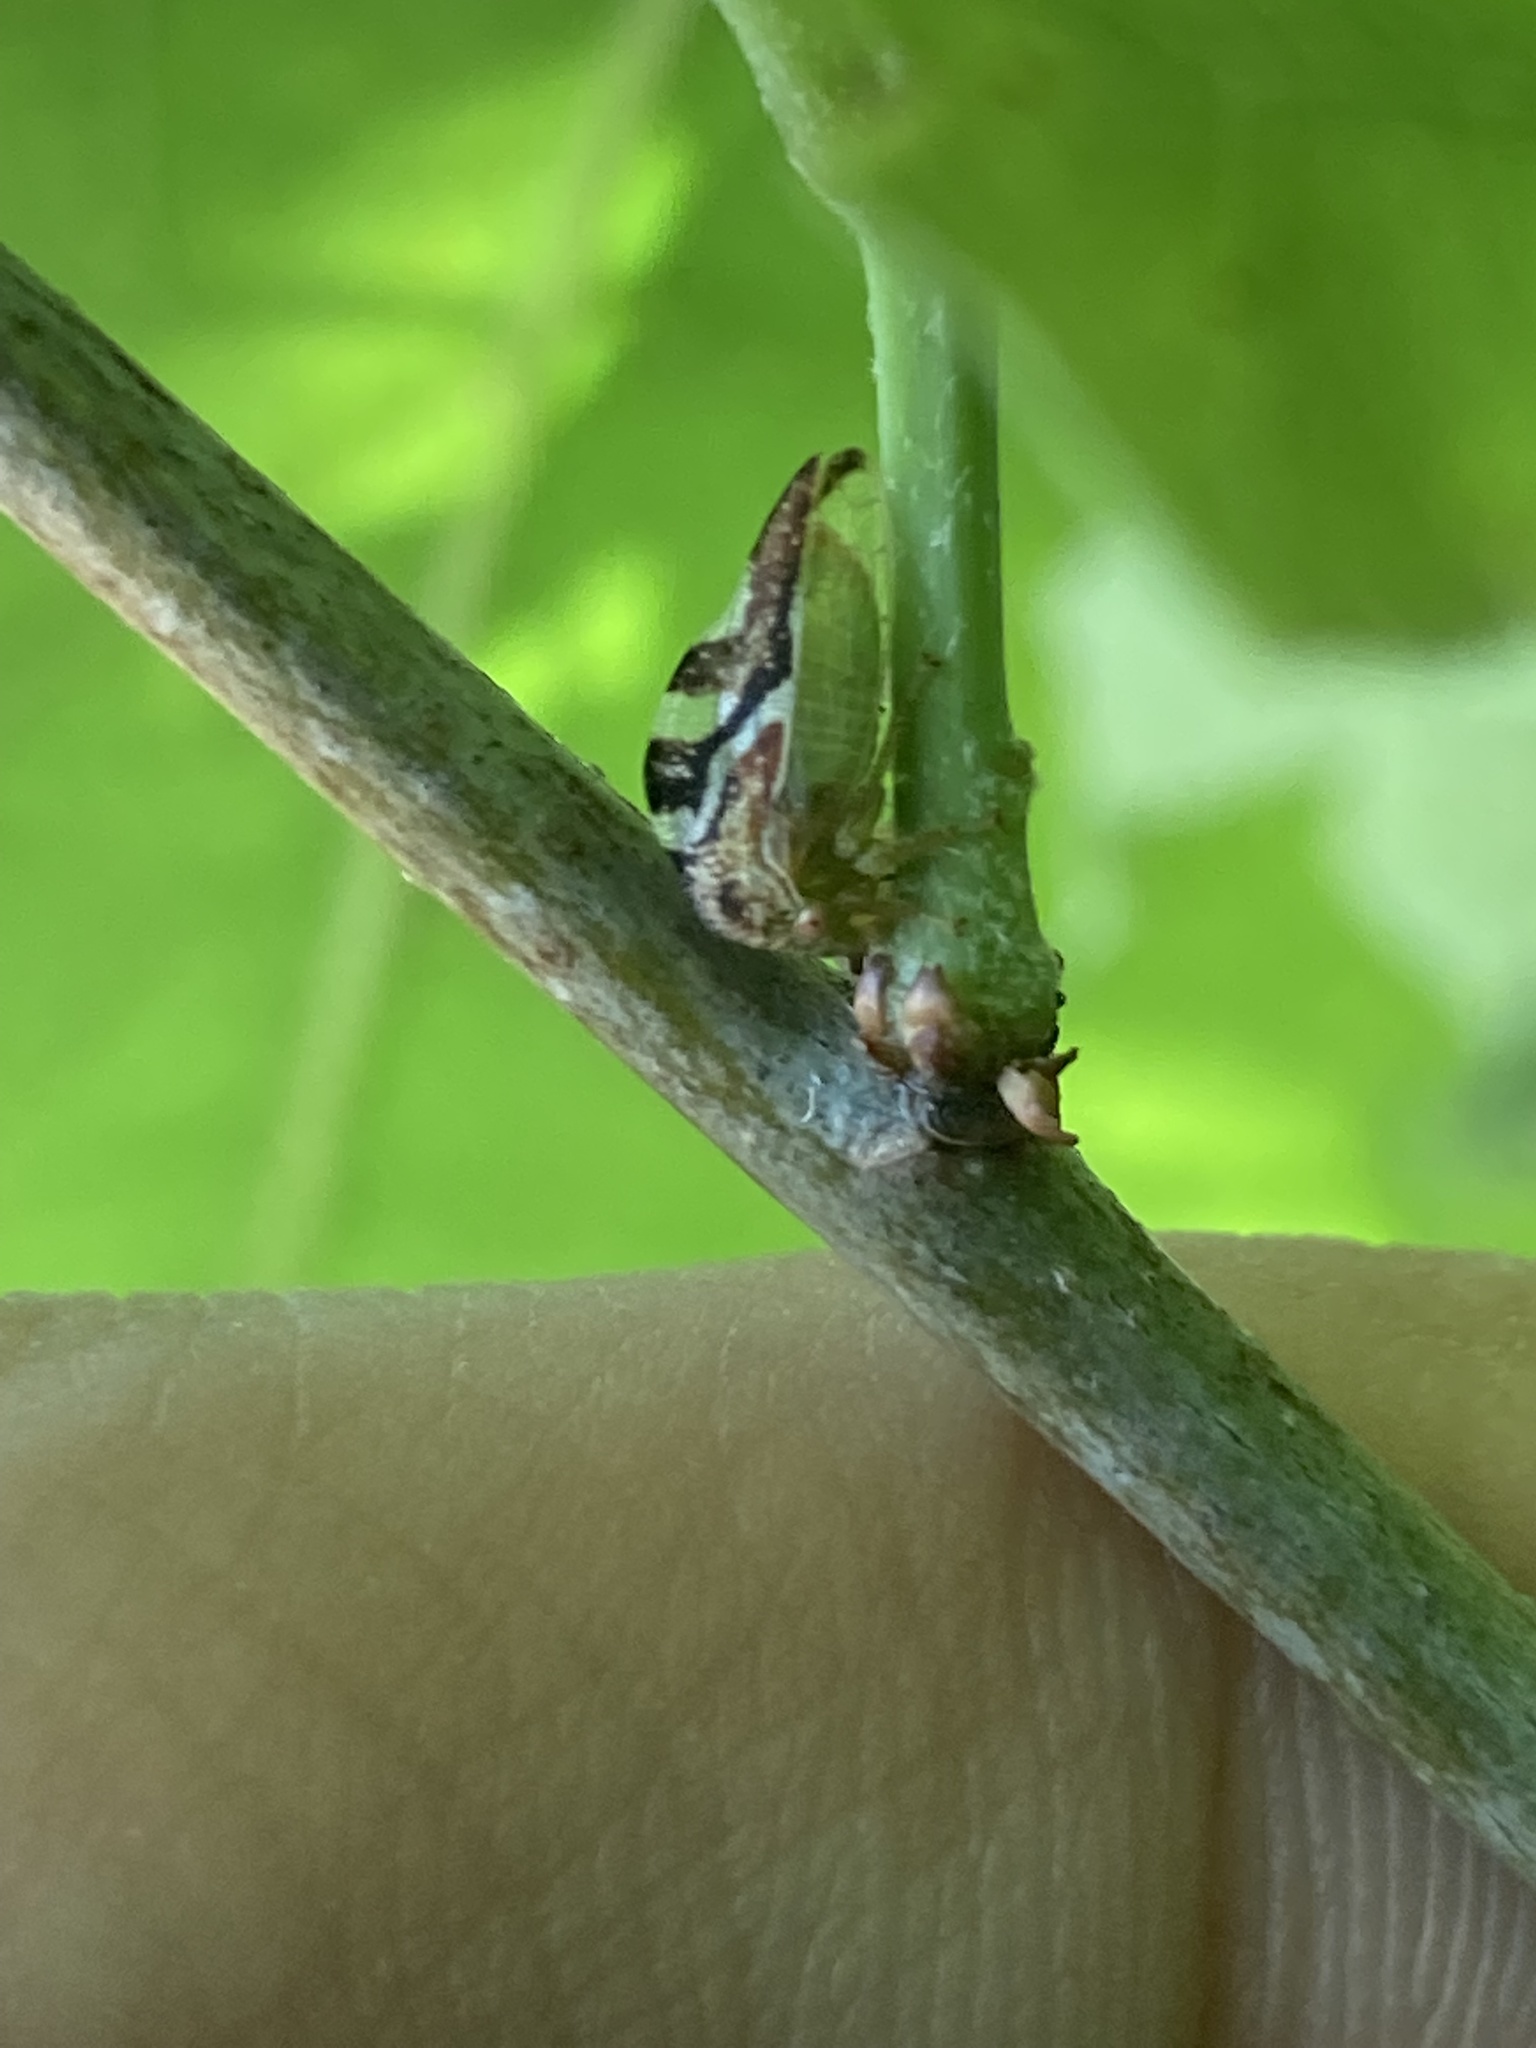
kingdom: Animalia
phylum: Arthropoda
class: Insecta
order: Hemiptera
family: Membracidae
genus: Cyrtolobus
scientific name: Cyrtolobus fenestrata
